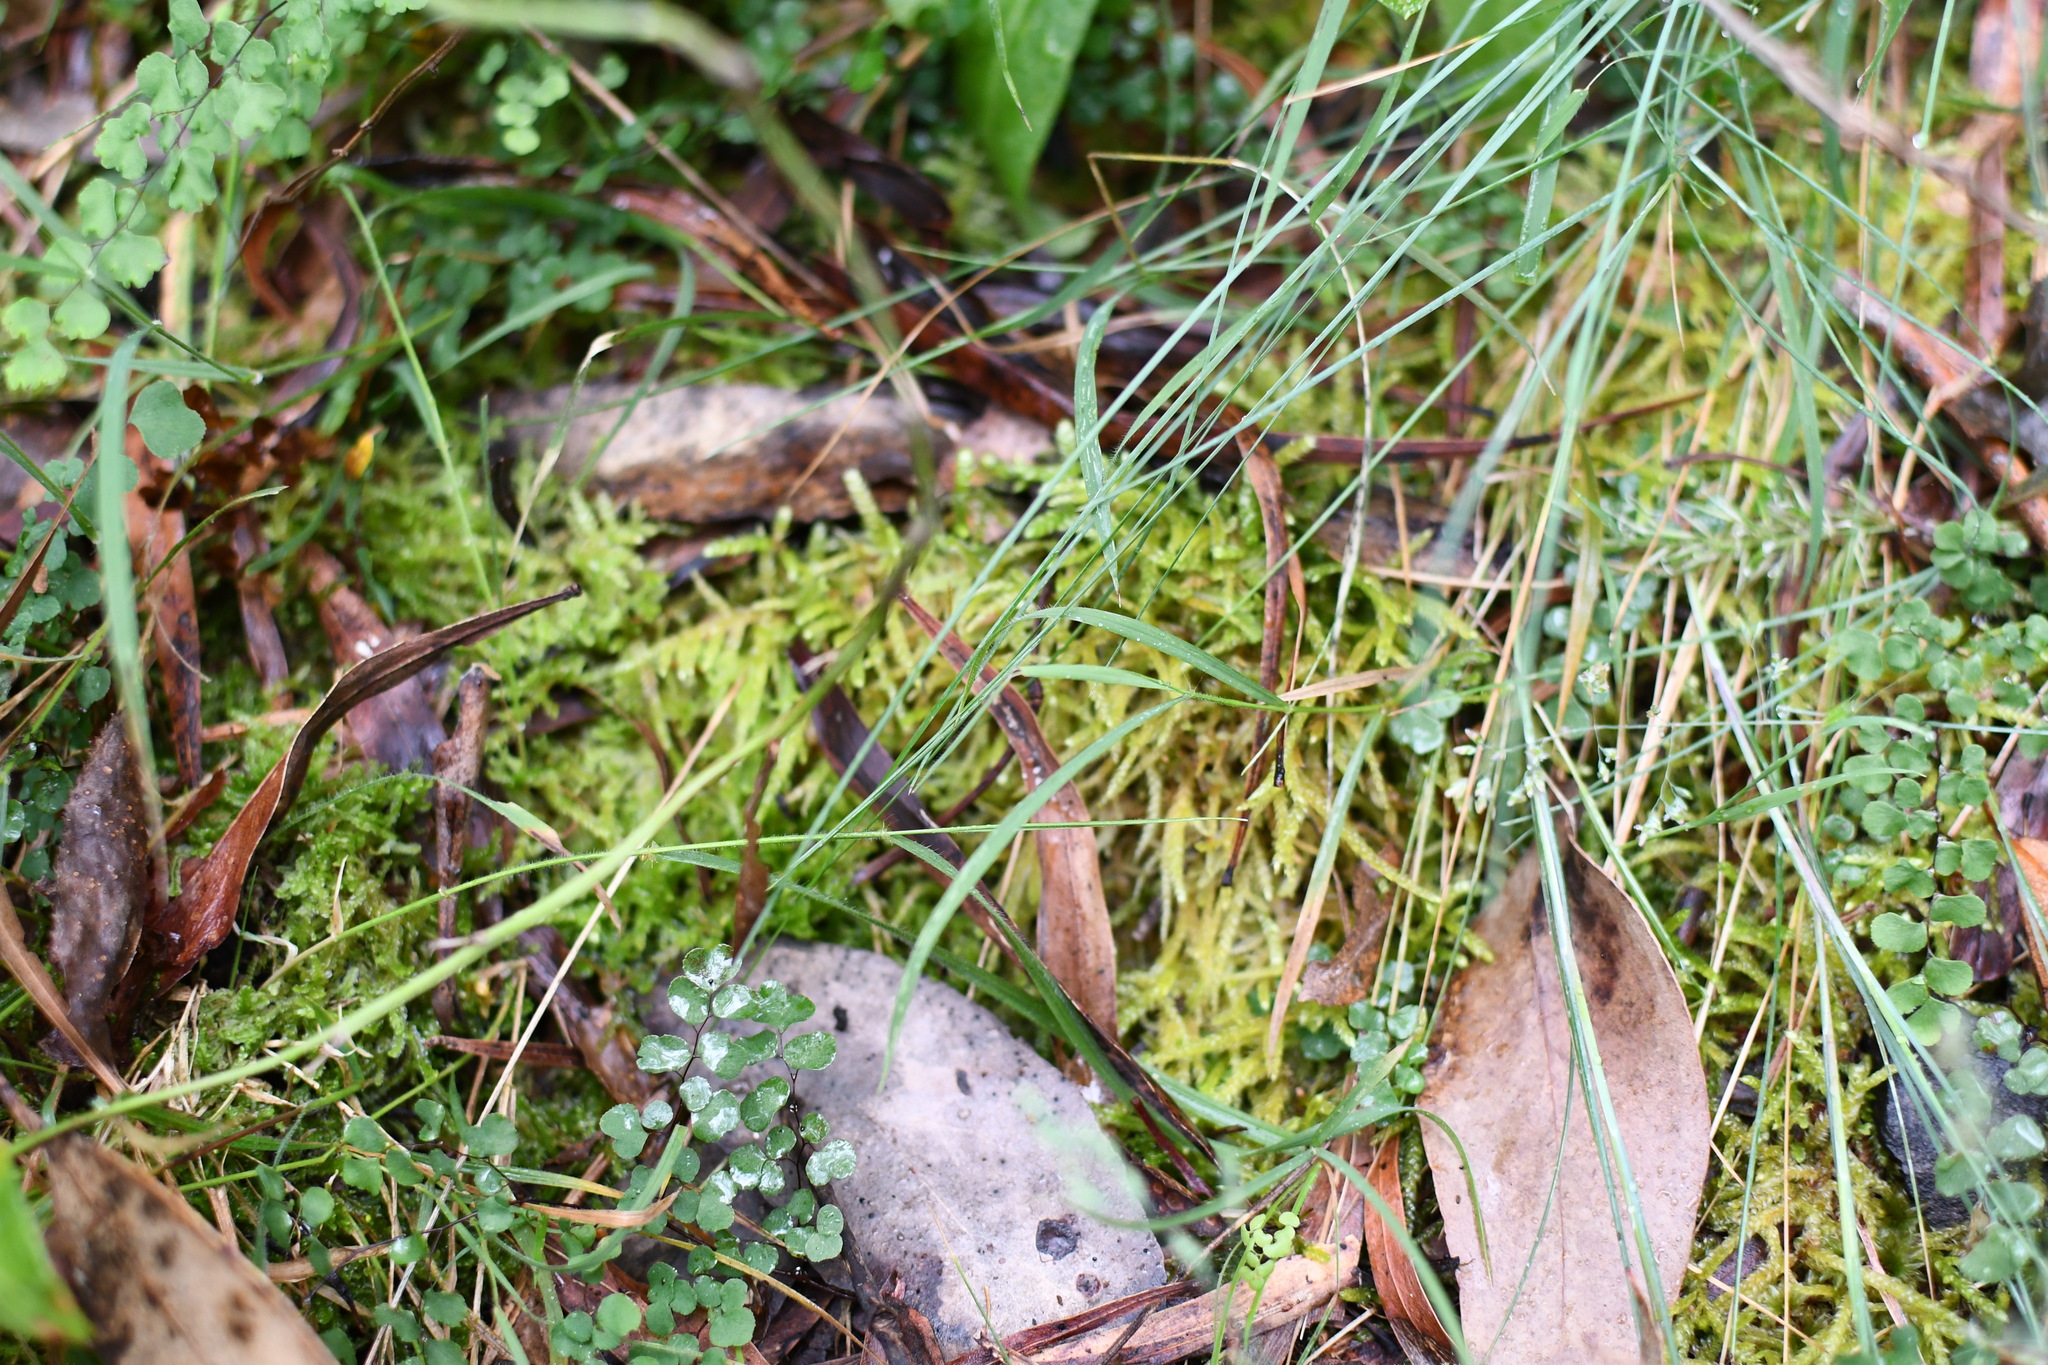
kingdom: Plantae
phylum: Tracheophyta
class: Polypodiopsida
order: Polypodiales
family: Pteridaceae
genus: Adiantum
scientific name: Adiantum aethiopicum
